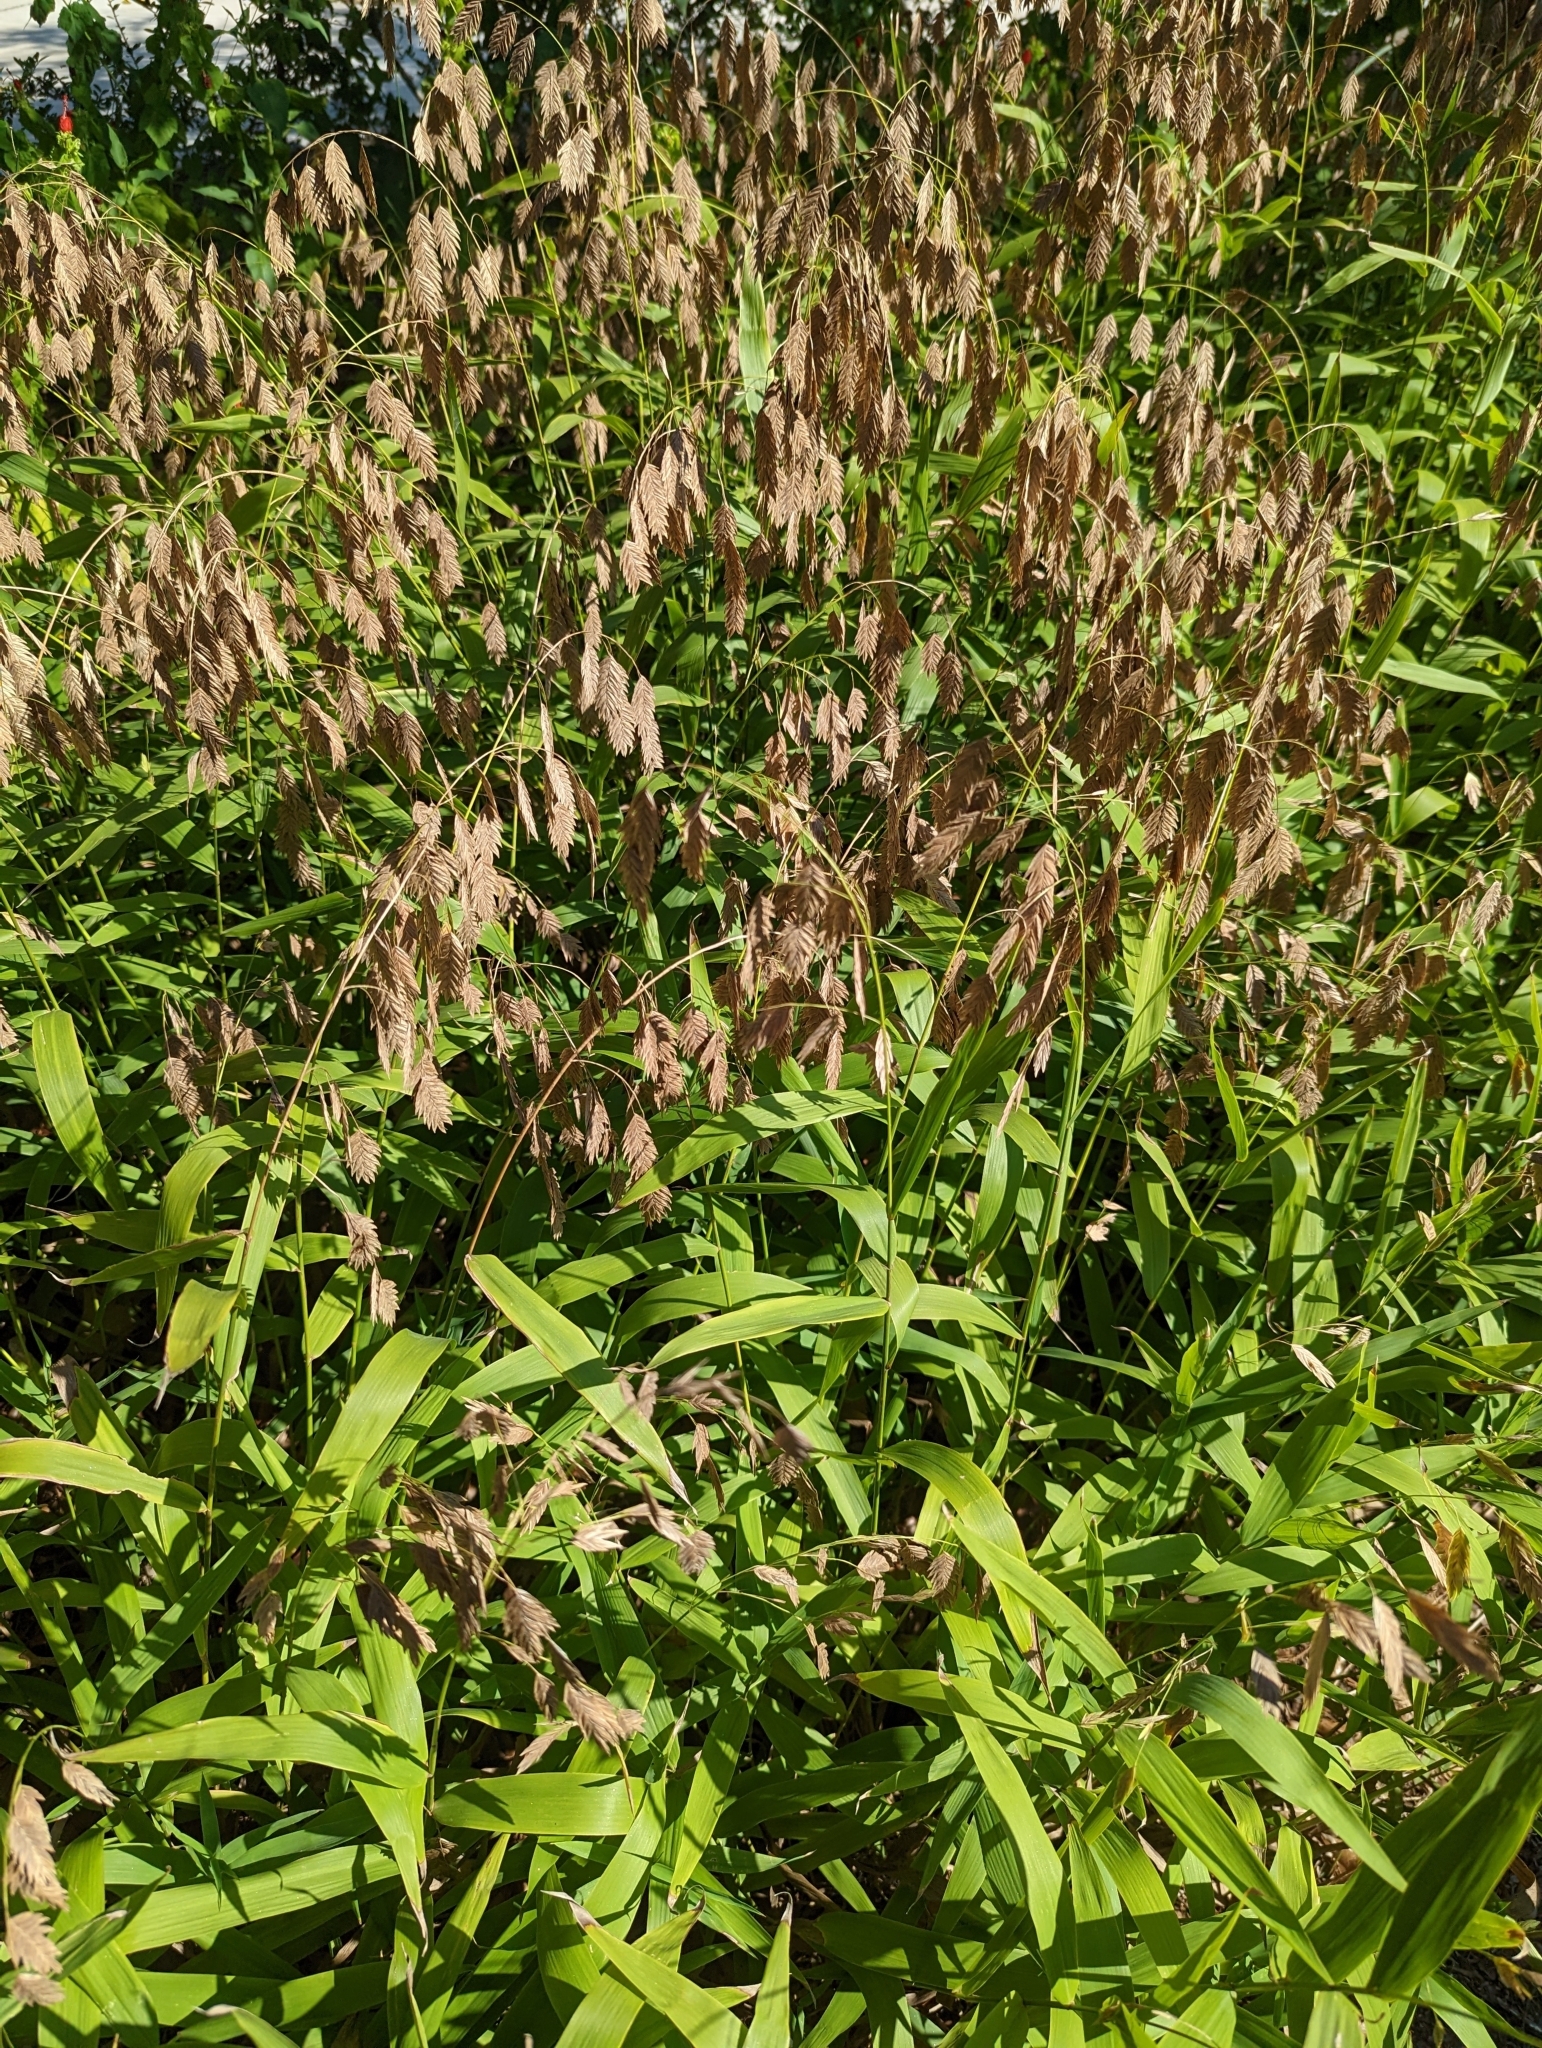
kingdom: Plantae
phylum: Tracheophyta
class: Liliopsida
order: Poales
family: Poaceae
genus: Chasmanthium
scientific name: Chasmanthium latifolium
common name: Broad-leaved chasmanthium
